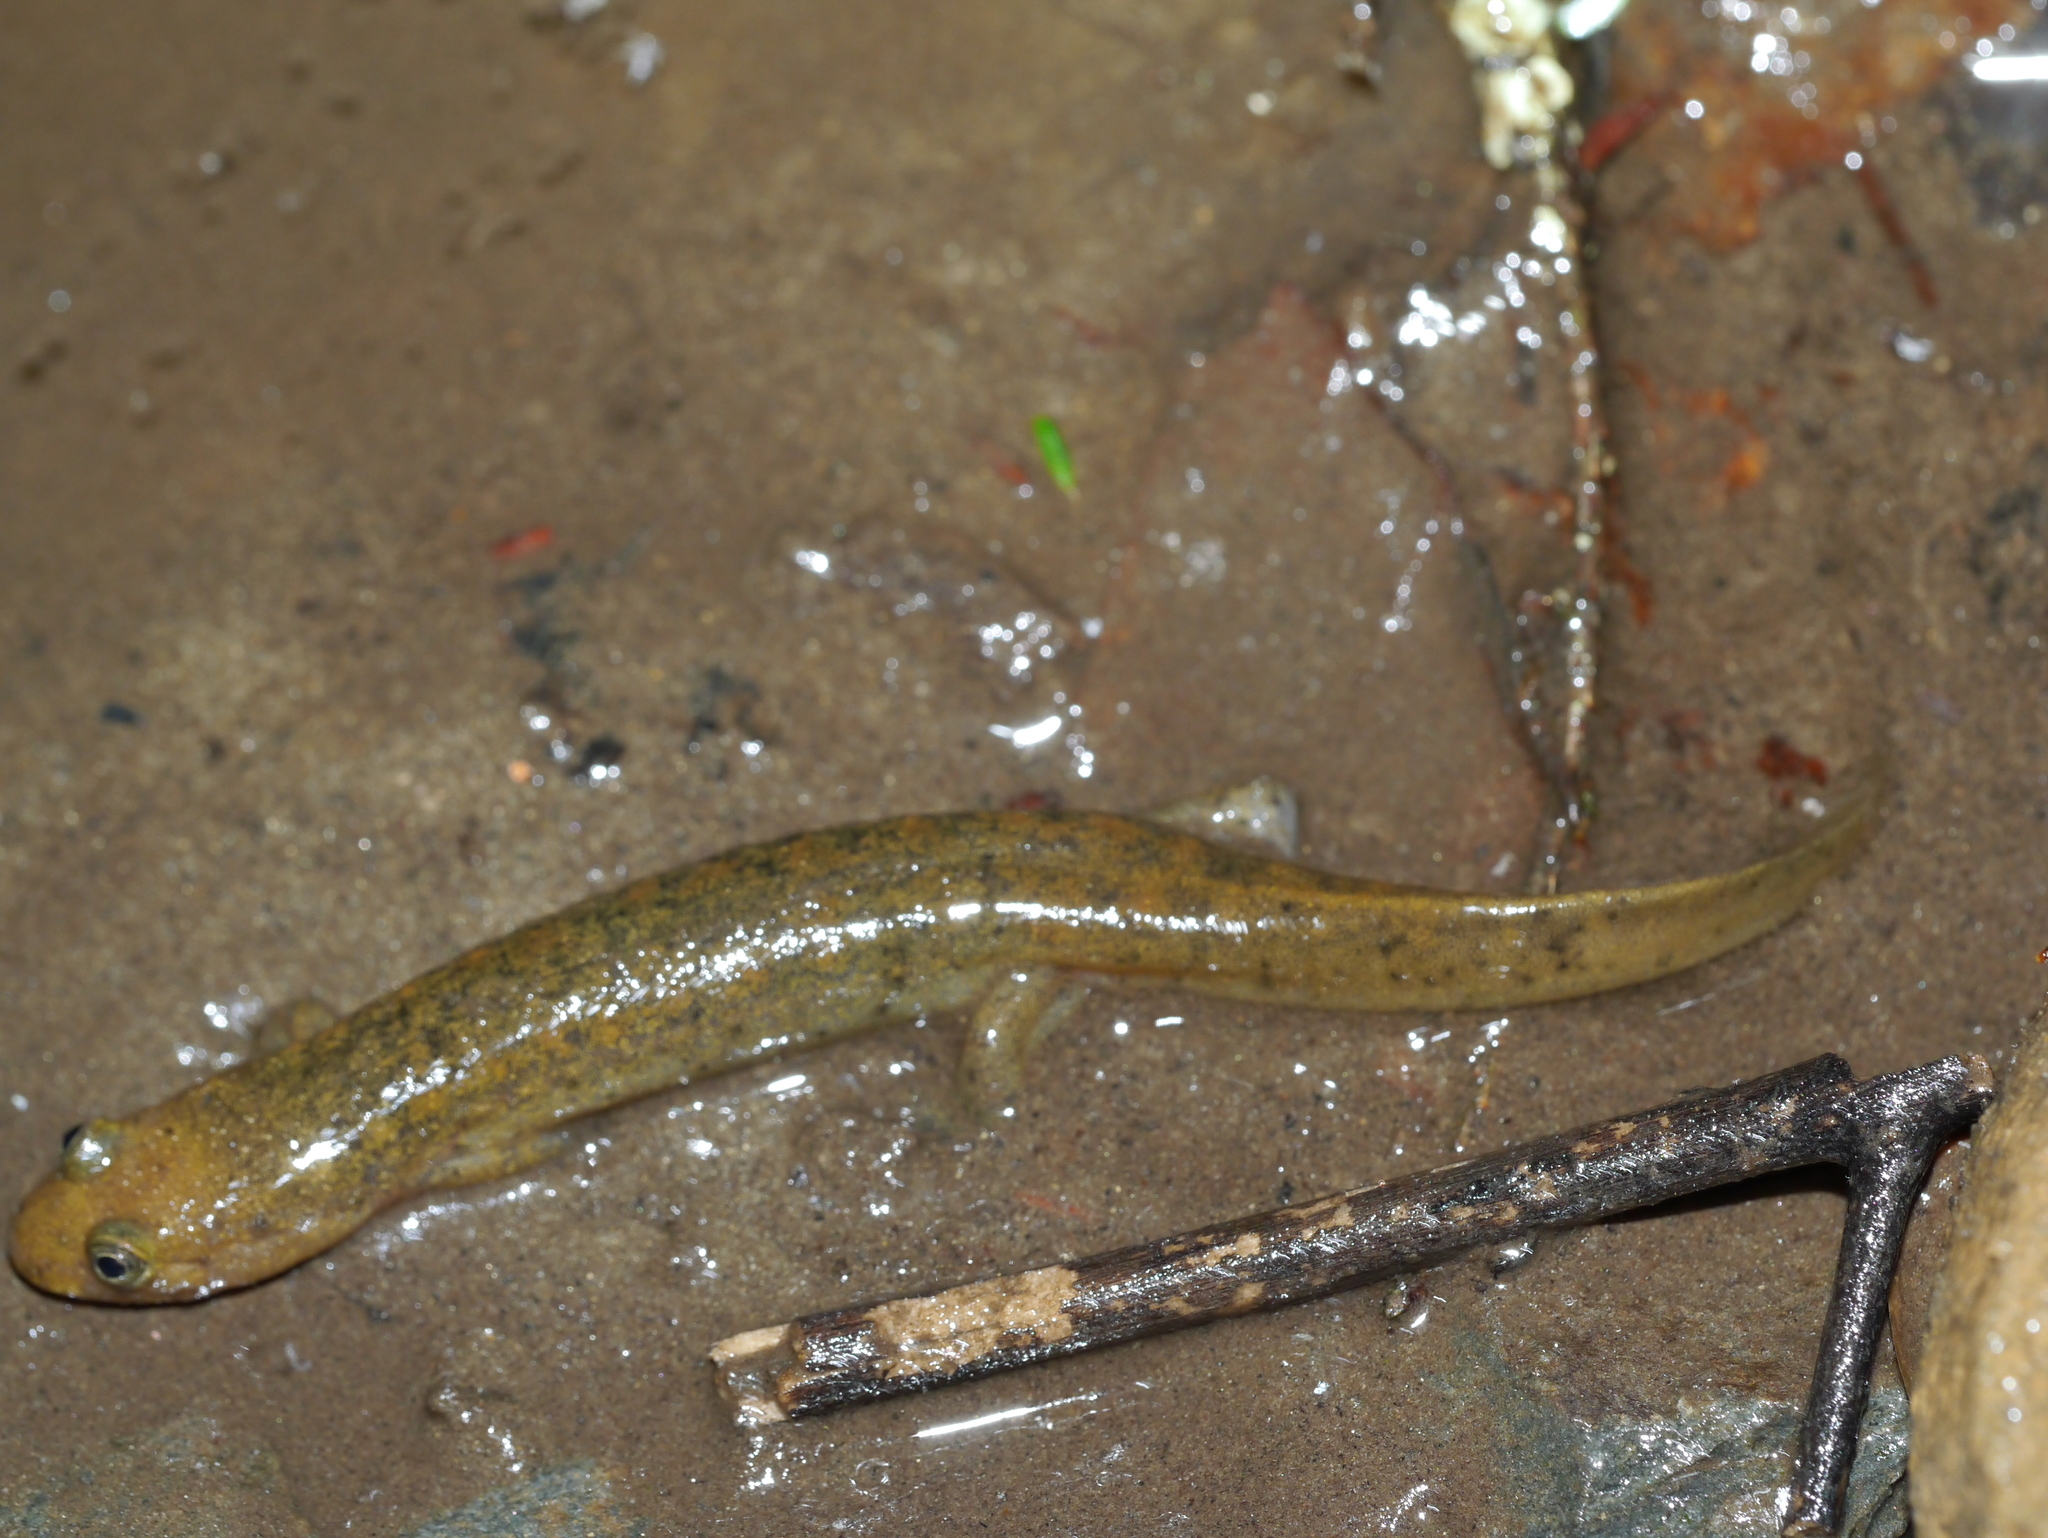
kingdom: Animalia
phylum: Chordata
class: Amphibia
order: Caudata
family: Plethodontidae
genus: Desmognathus
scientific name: Desmognathus
